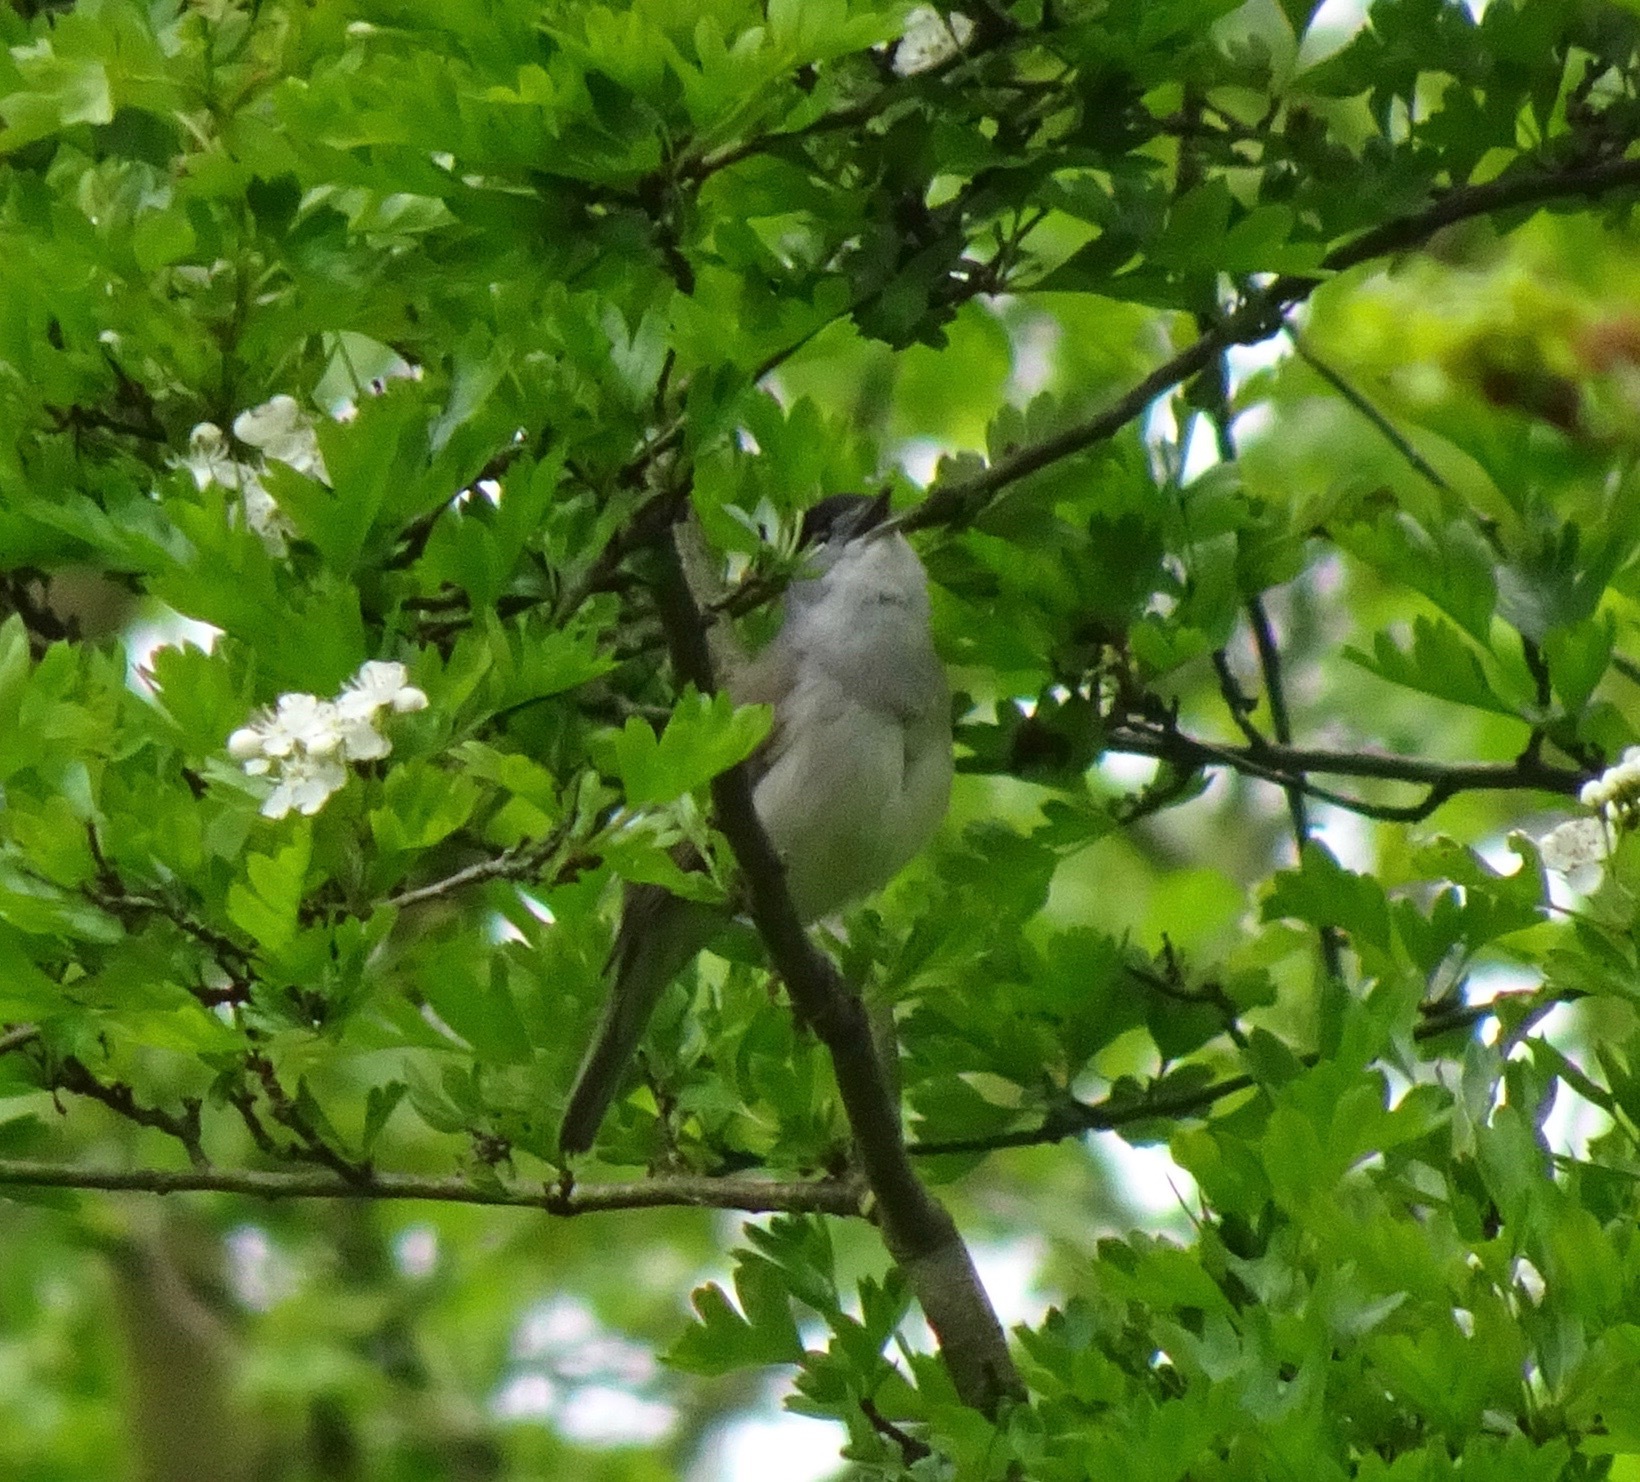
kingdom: Animalia
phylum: Chordata
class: Aves
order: Passeriformes
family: Sylviidae
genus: Sylvia
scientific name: Sylvia atricapilla
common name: Eurasian blackcap
